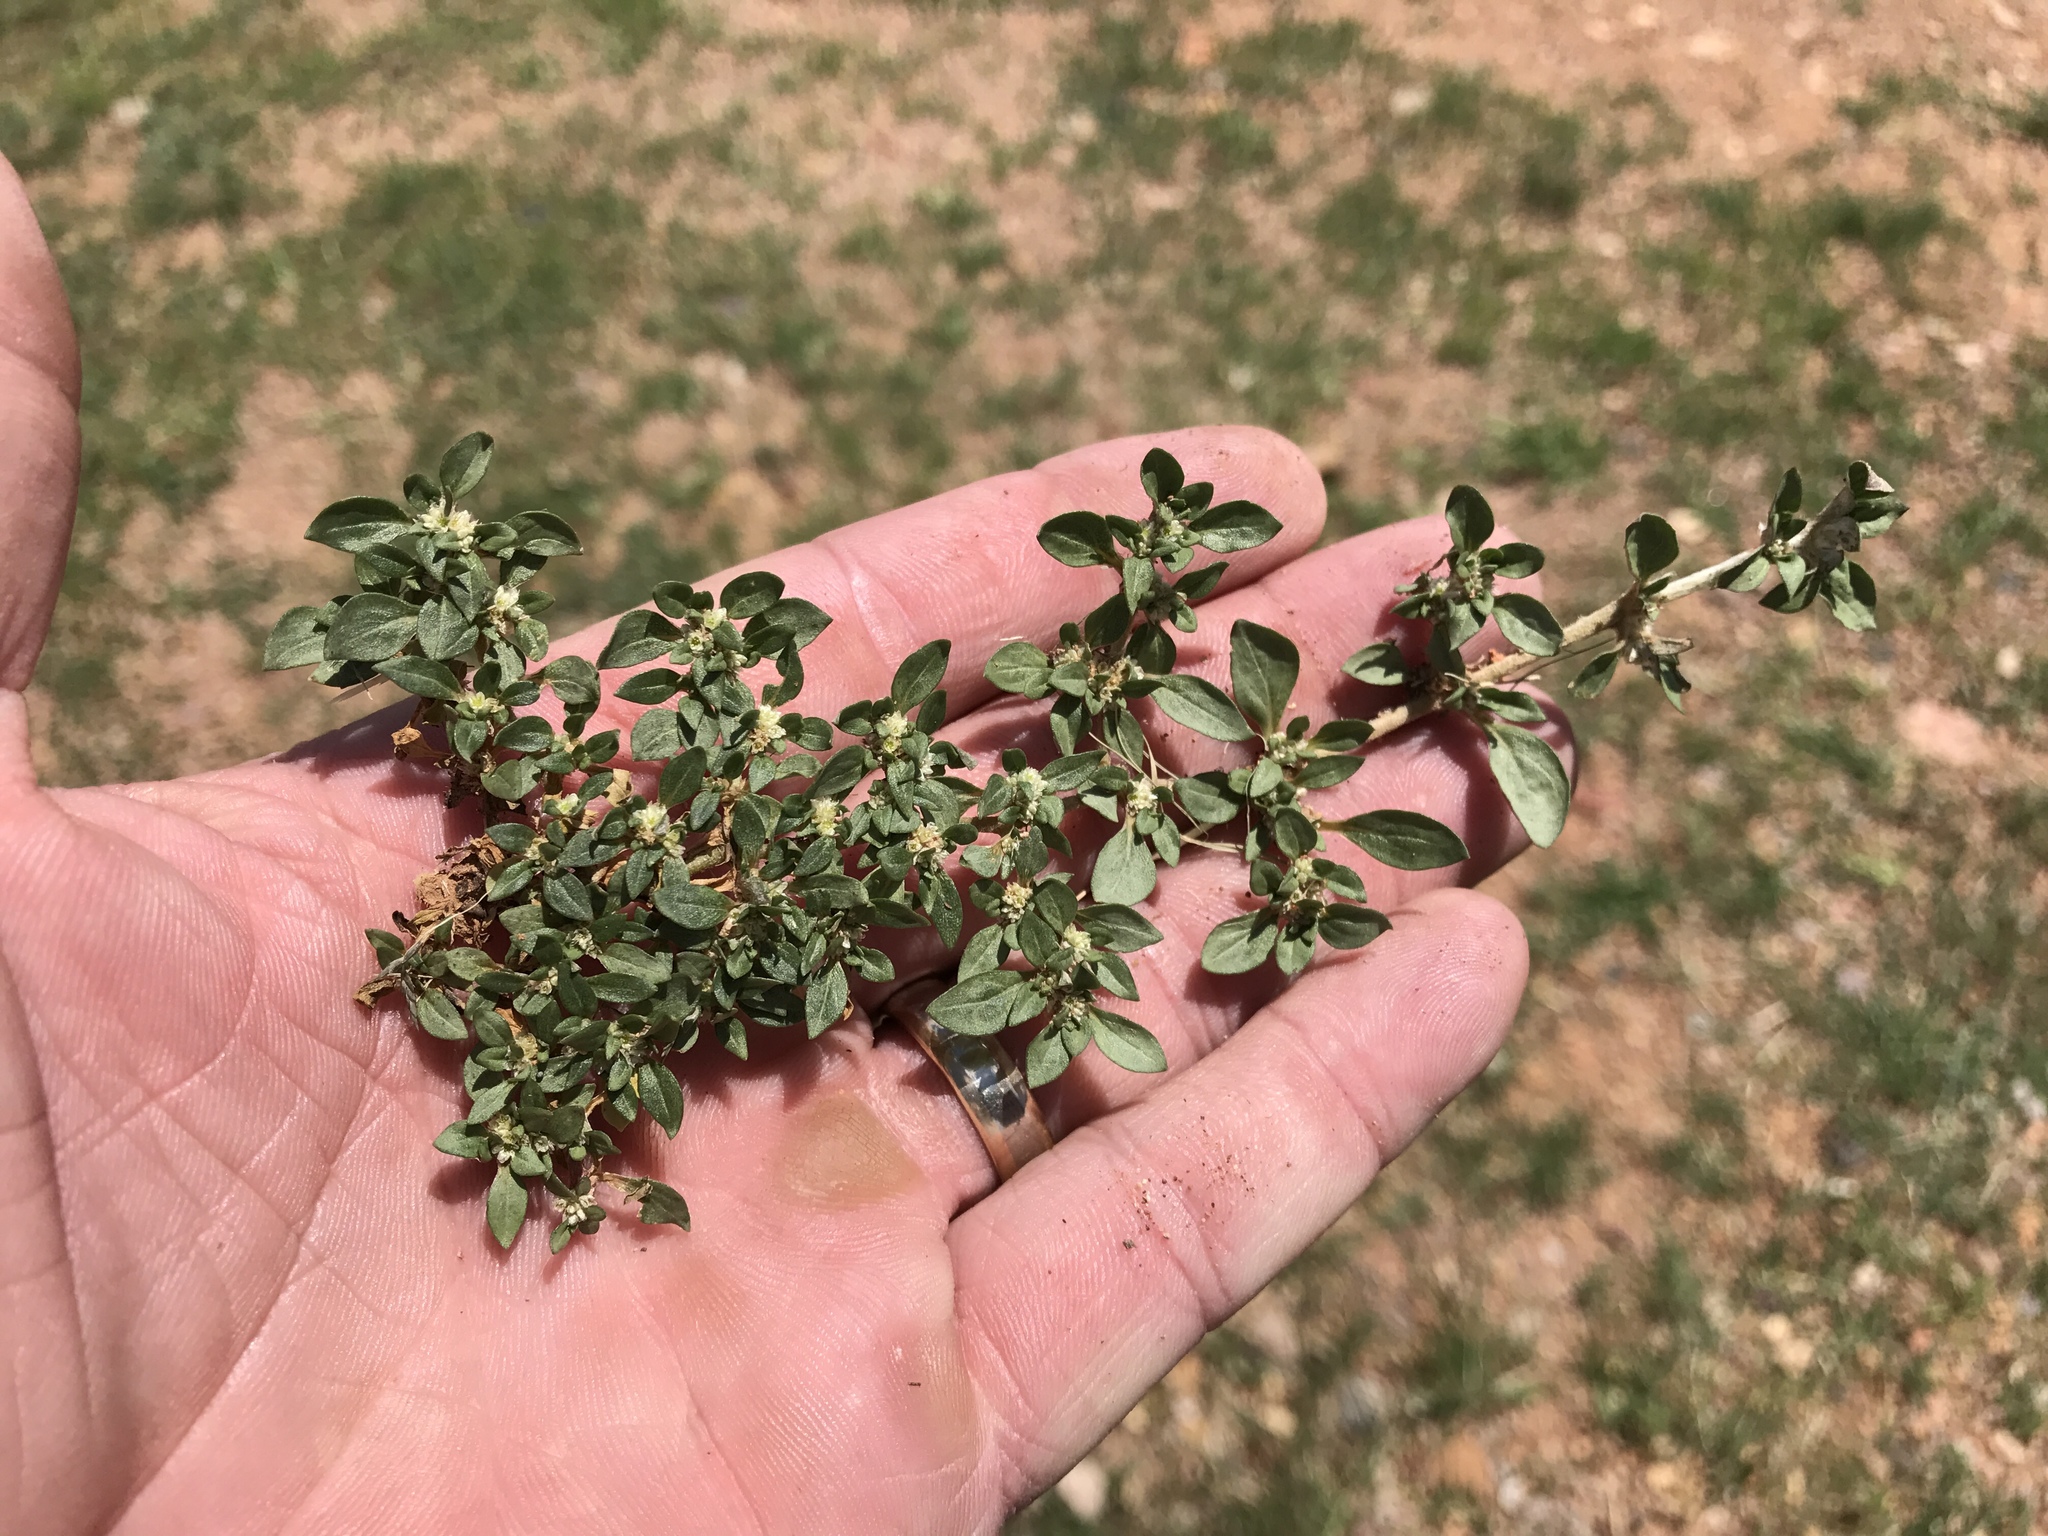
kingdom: Plantae
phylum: Tracheophyta
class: Magnoliopsida
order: Caryophyllales
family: Amaranthaceae
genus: Guilleminea
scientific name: Guilleminea densa
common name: Small matweed
